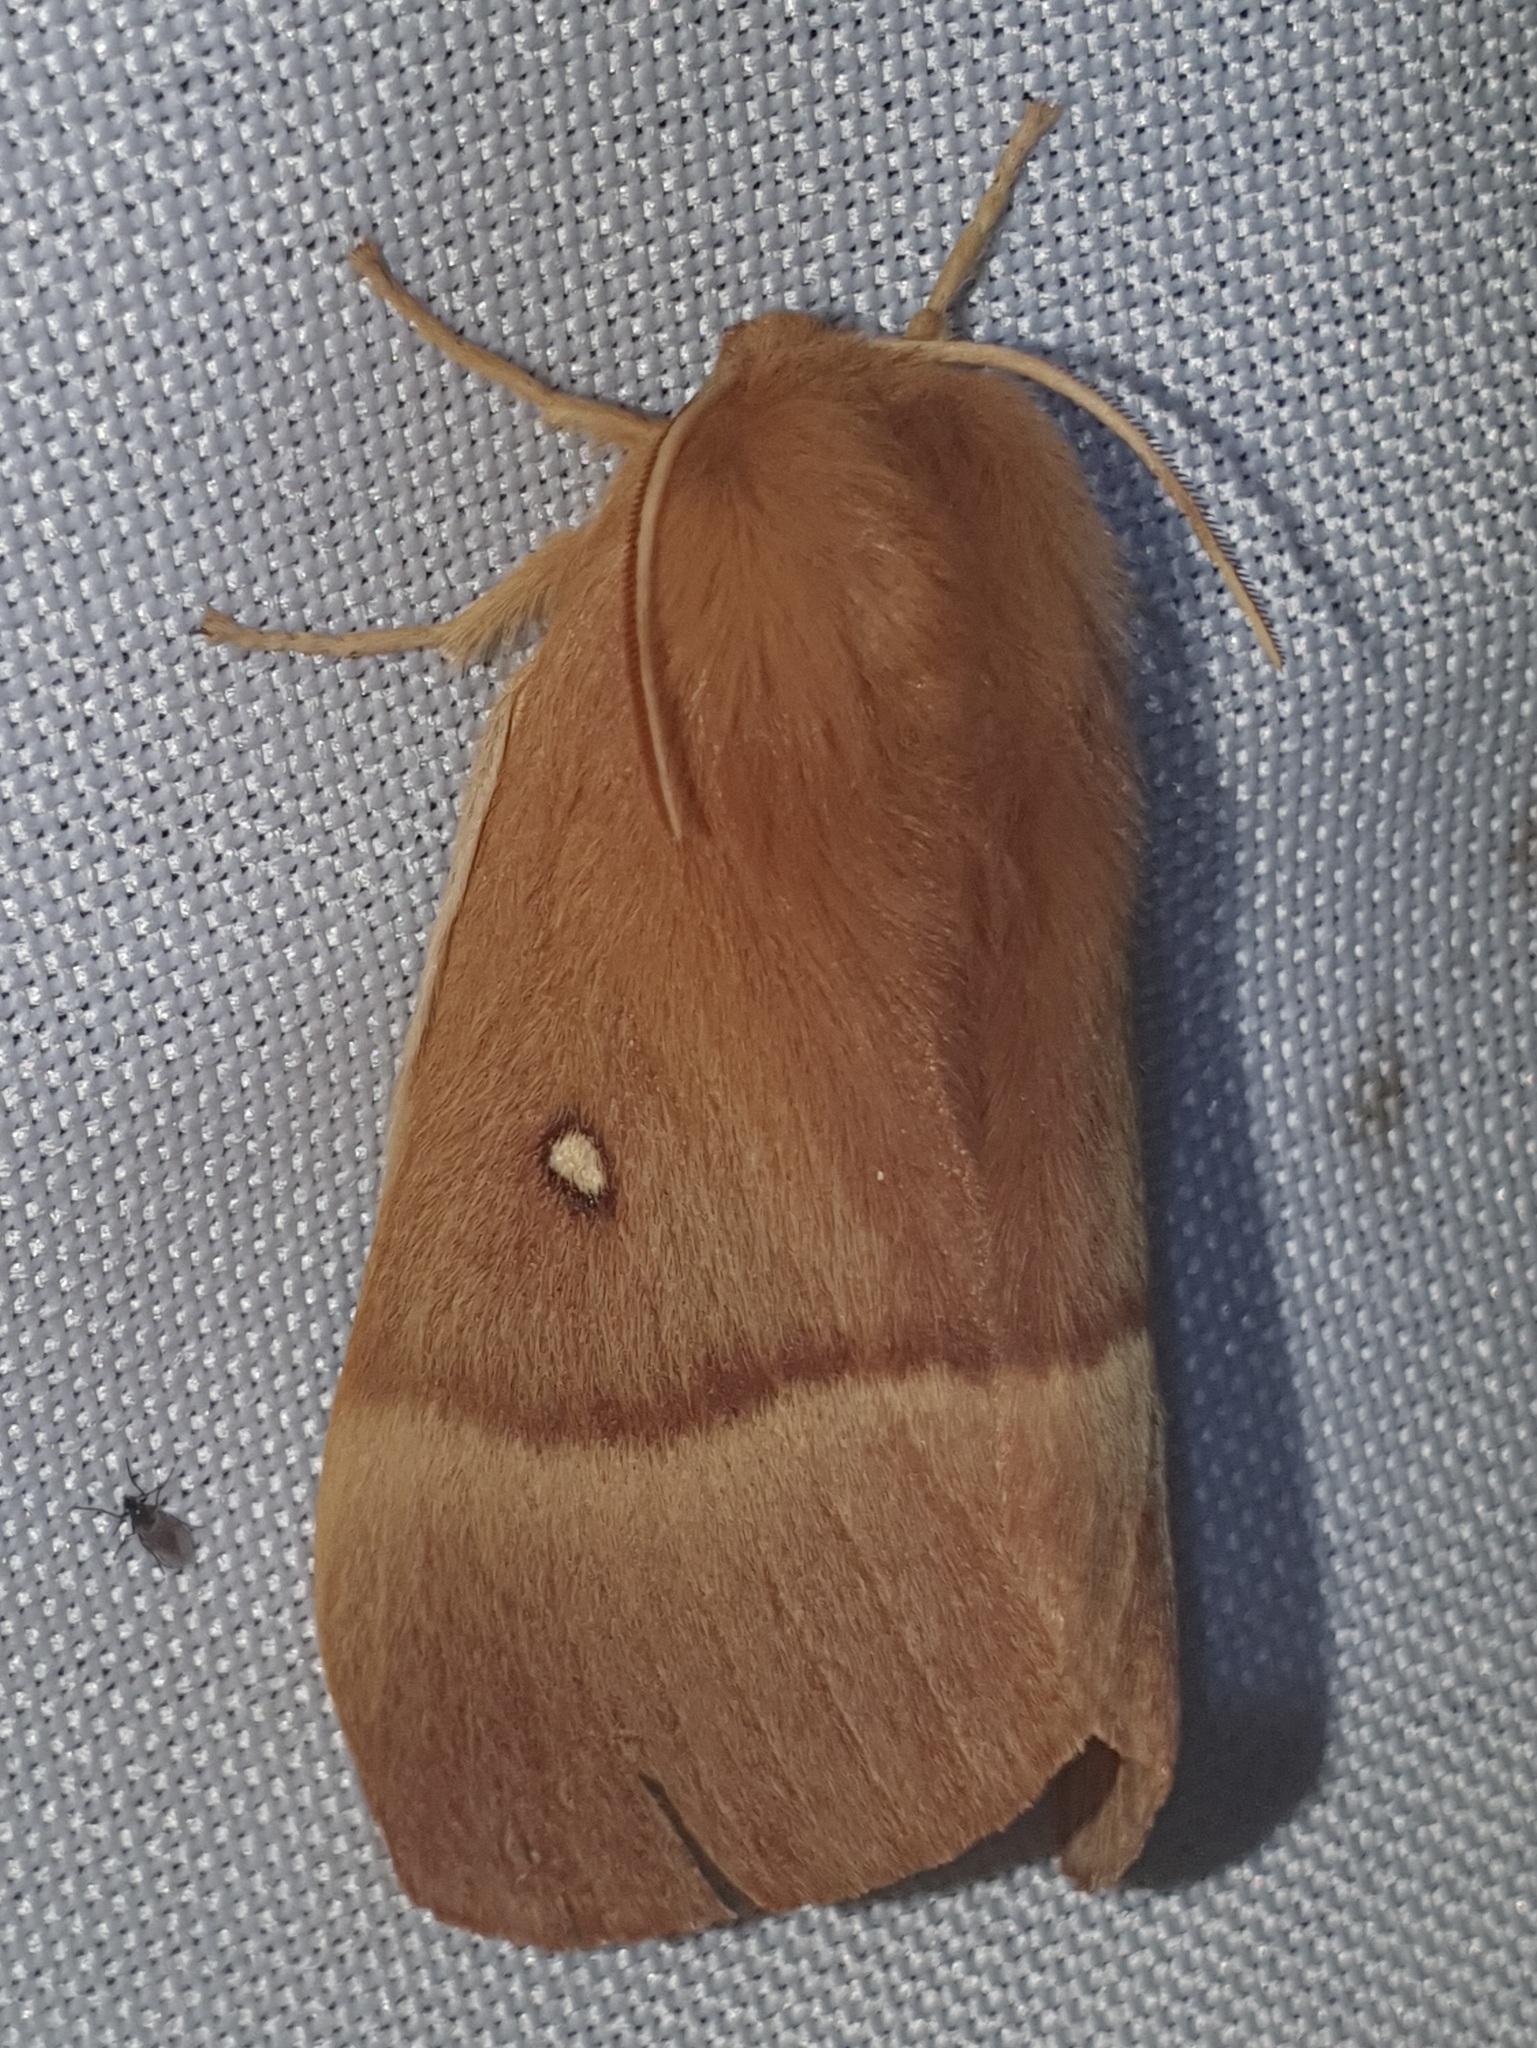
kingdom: Animalia
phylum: Arthropoda
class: Insecta
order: Lepidoptera
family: Lasiocampidae
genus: Lasiocampa
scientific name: Lasiocampa quercus
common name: Oak eggar
